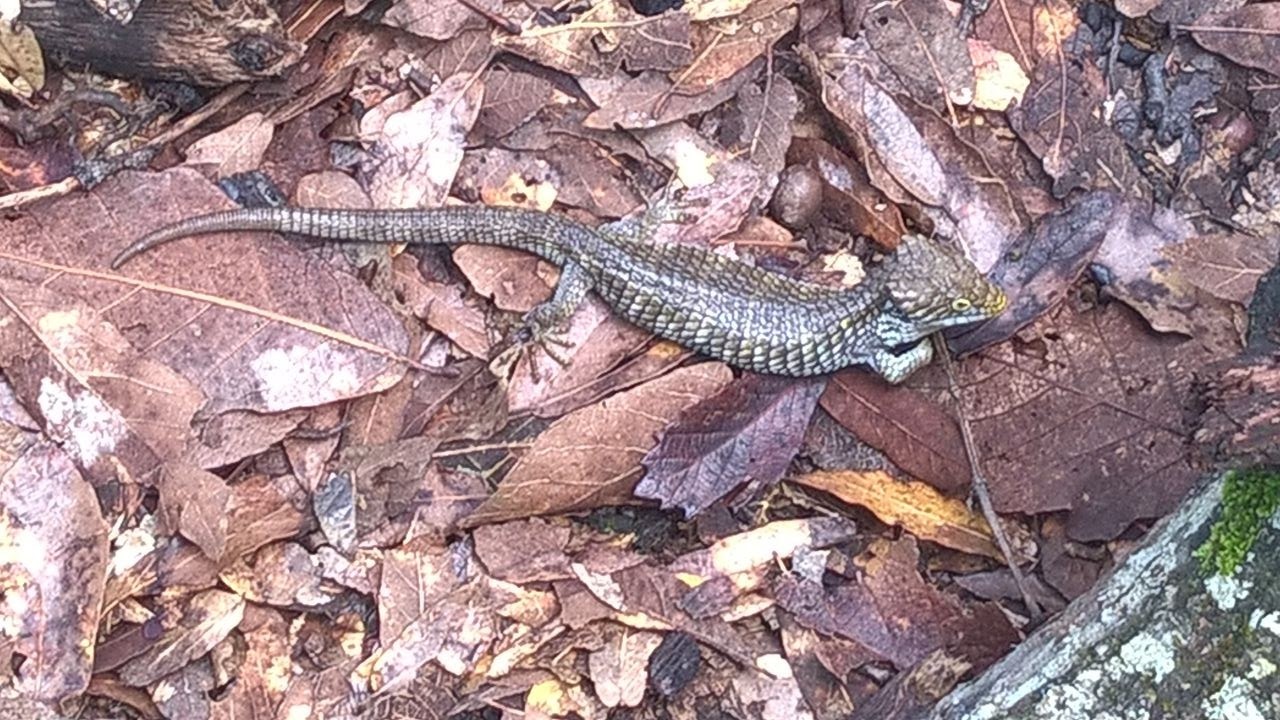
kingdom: Animalia
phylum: Chordata
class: Squamata
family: Anguidae
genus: Abronia
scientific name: Abronia oaxacae
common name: Oaxaca arboreal alligator lizard
